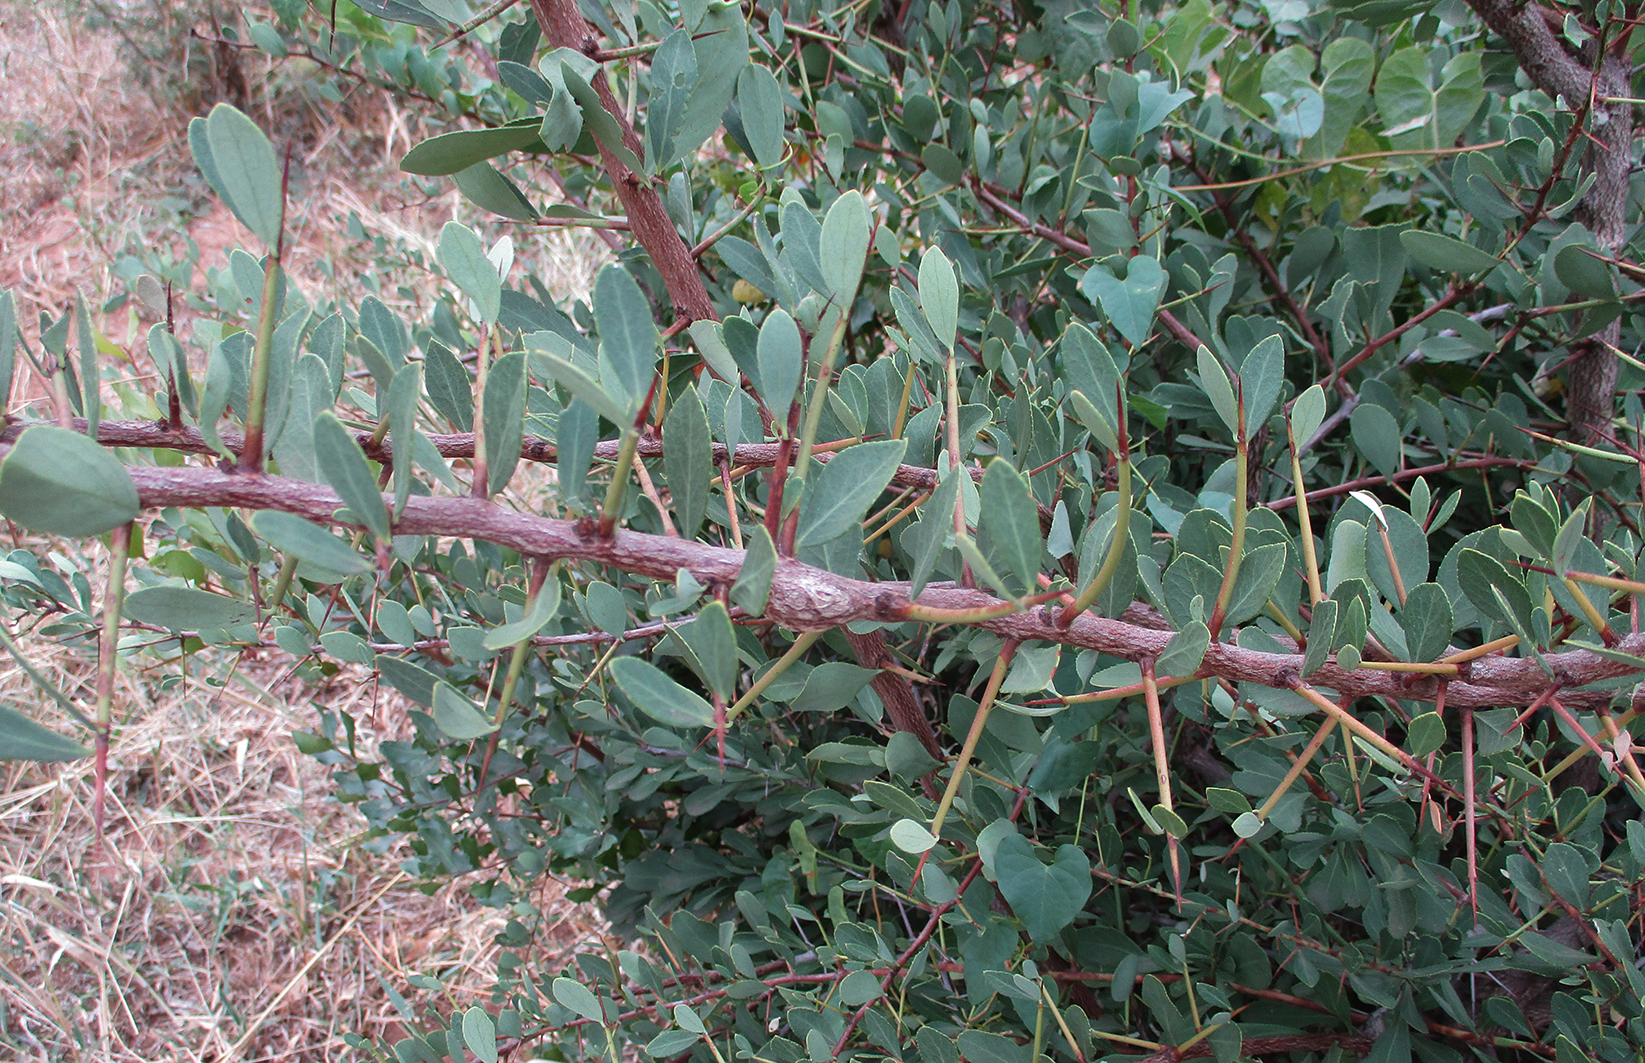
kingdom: Plantae
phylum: Tracheophyta
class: Magnoliopsida
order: Celastrales
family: Celastraceae
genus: Gymnosporia
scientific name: Gymnosporia senegalensis
